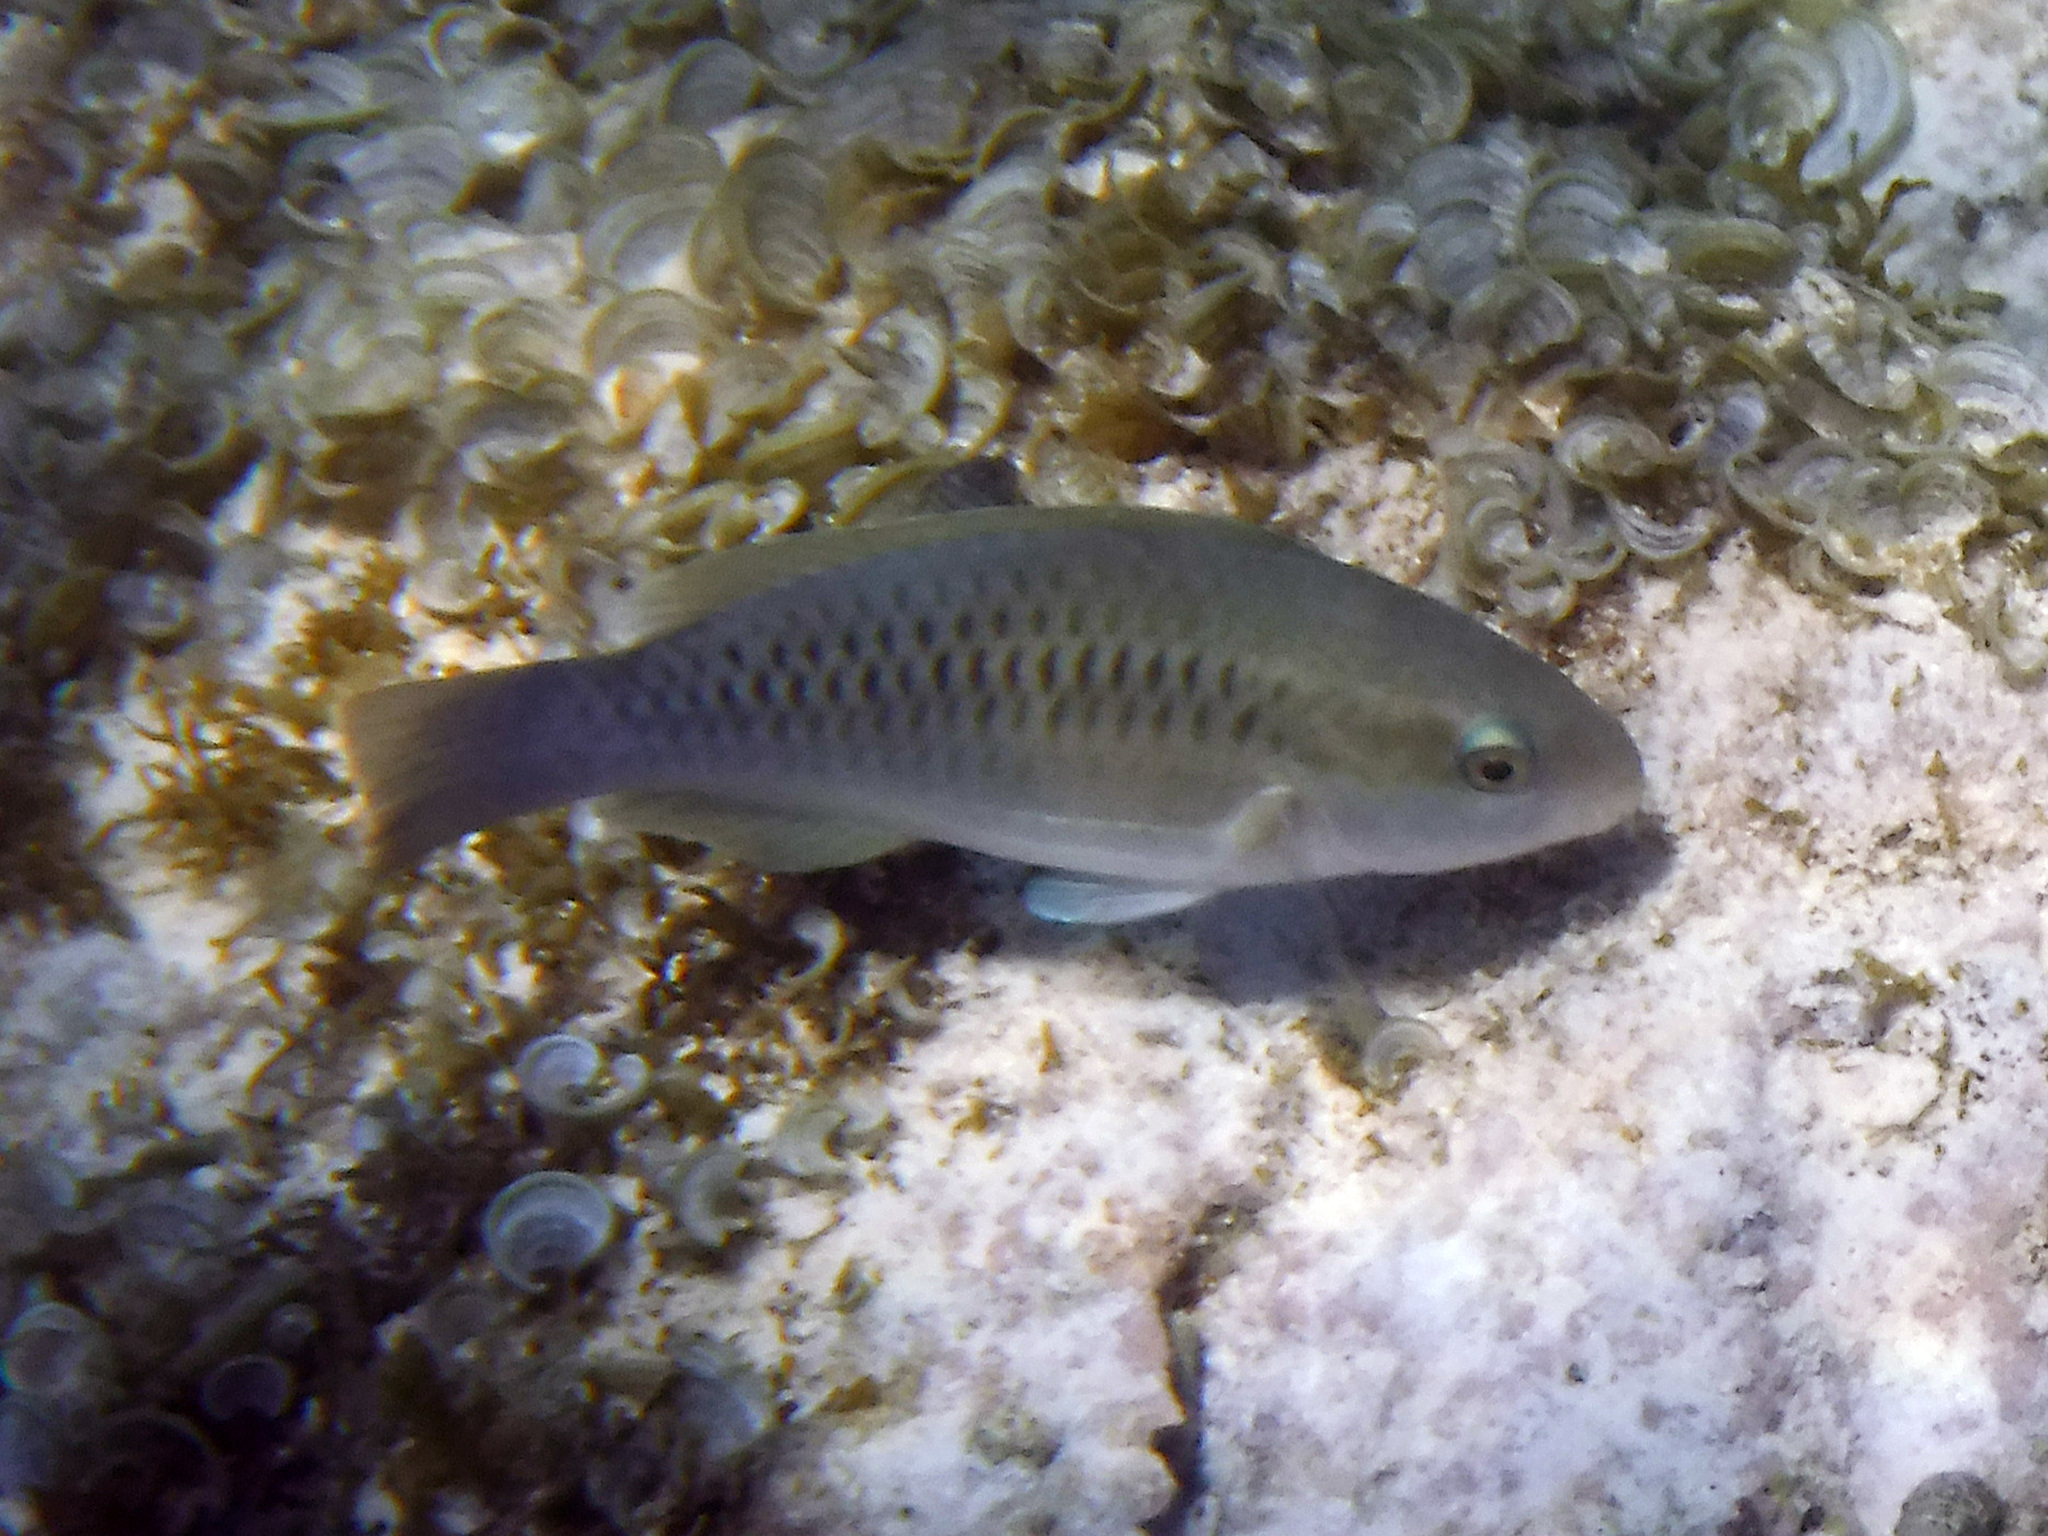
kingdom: Animalia
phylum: Chordata
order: Perciformes
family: Scaridae
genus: Scarus
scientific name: Scarus iseri
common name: Striped parrotfish
